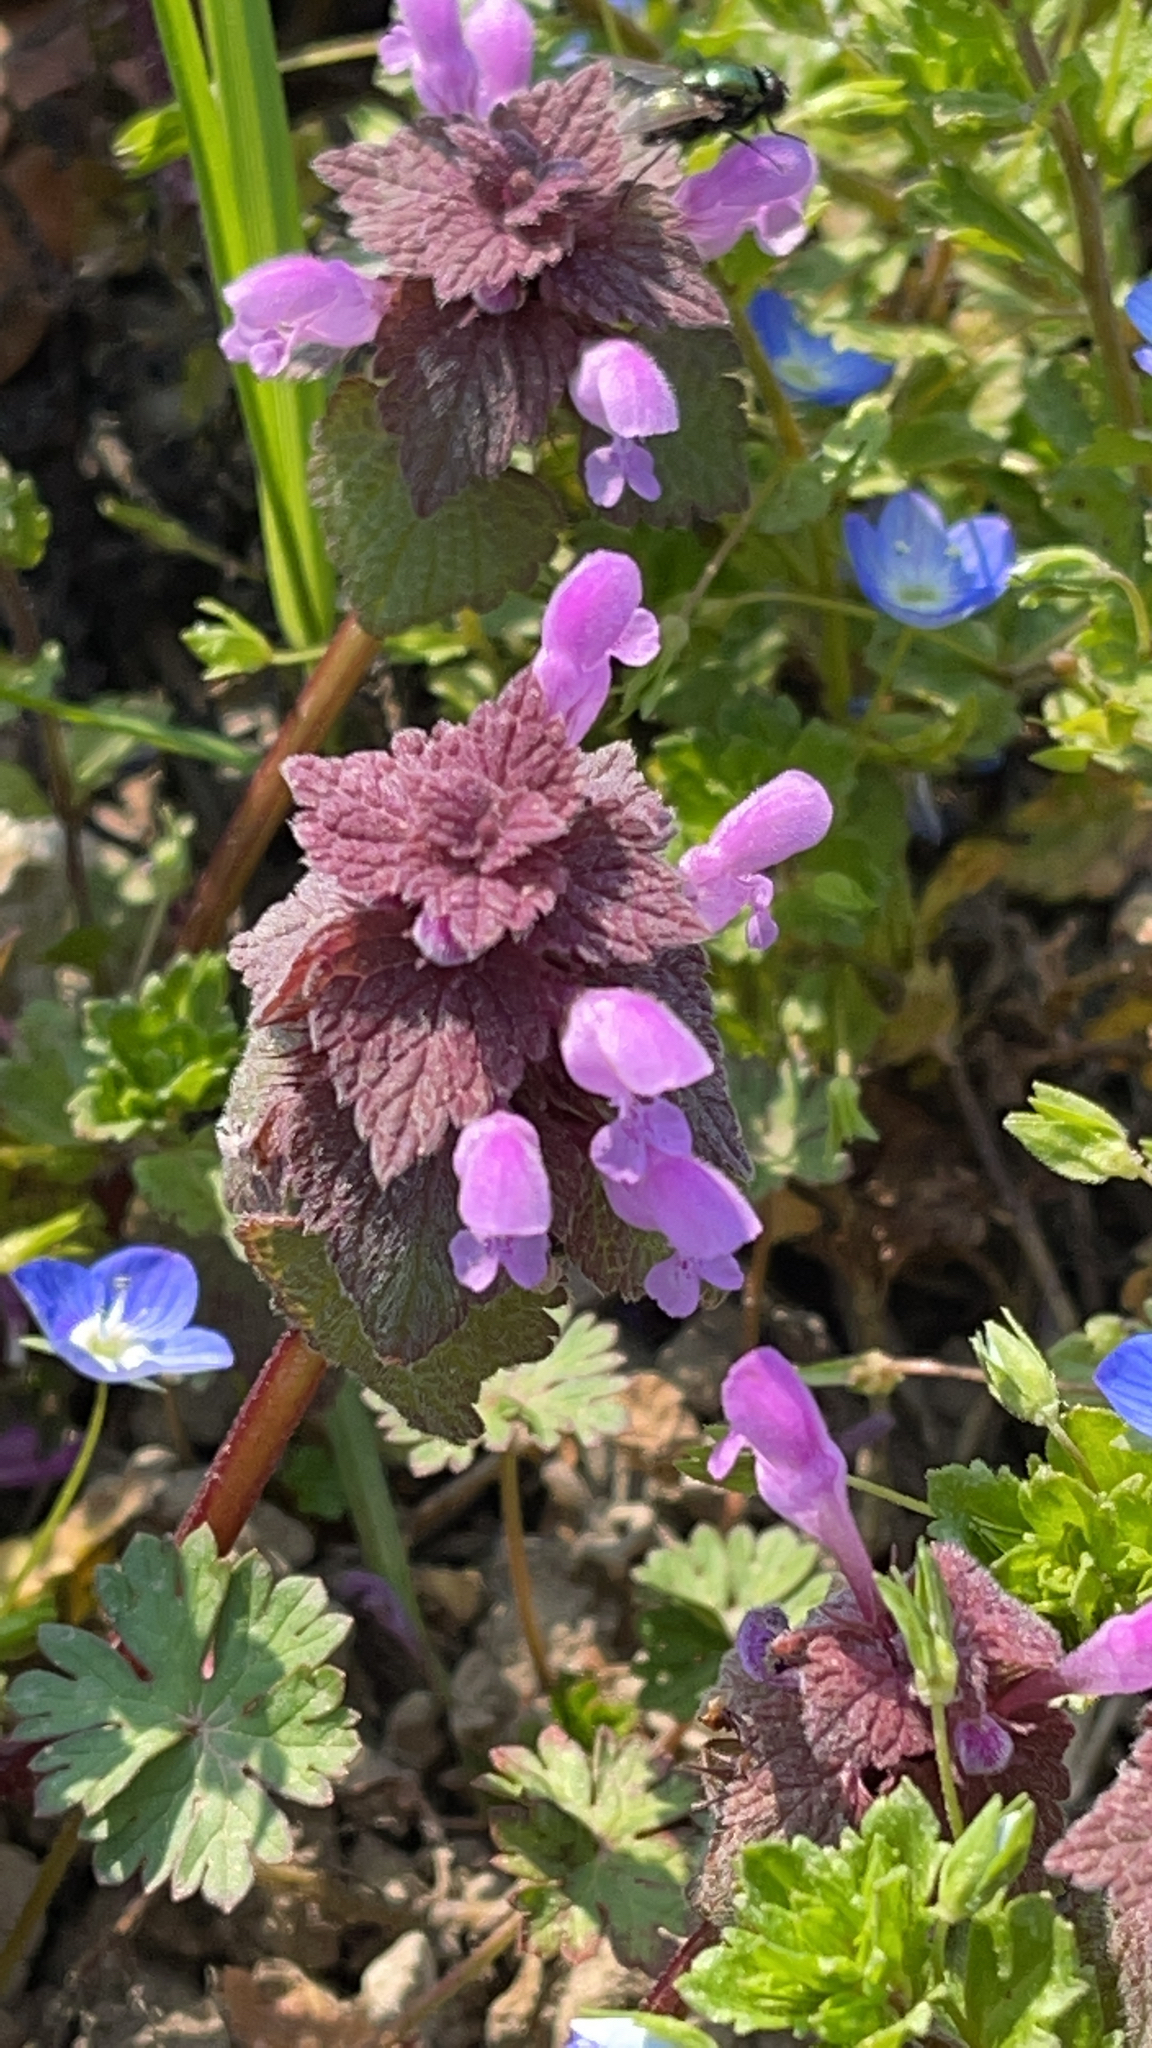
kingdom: Plantae
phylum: Tracheophyta
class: Magnoliopsida
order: Lamiales
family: Lamiaceae
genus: Lamium
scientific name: Lamium purpureum
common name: Red dead-nettle
